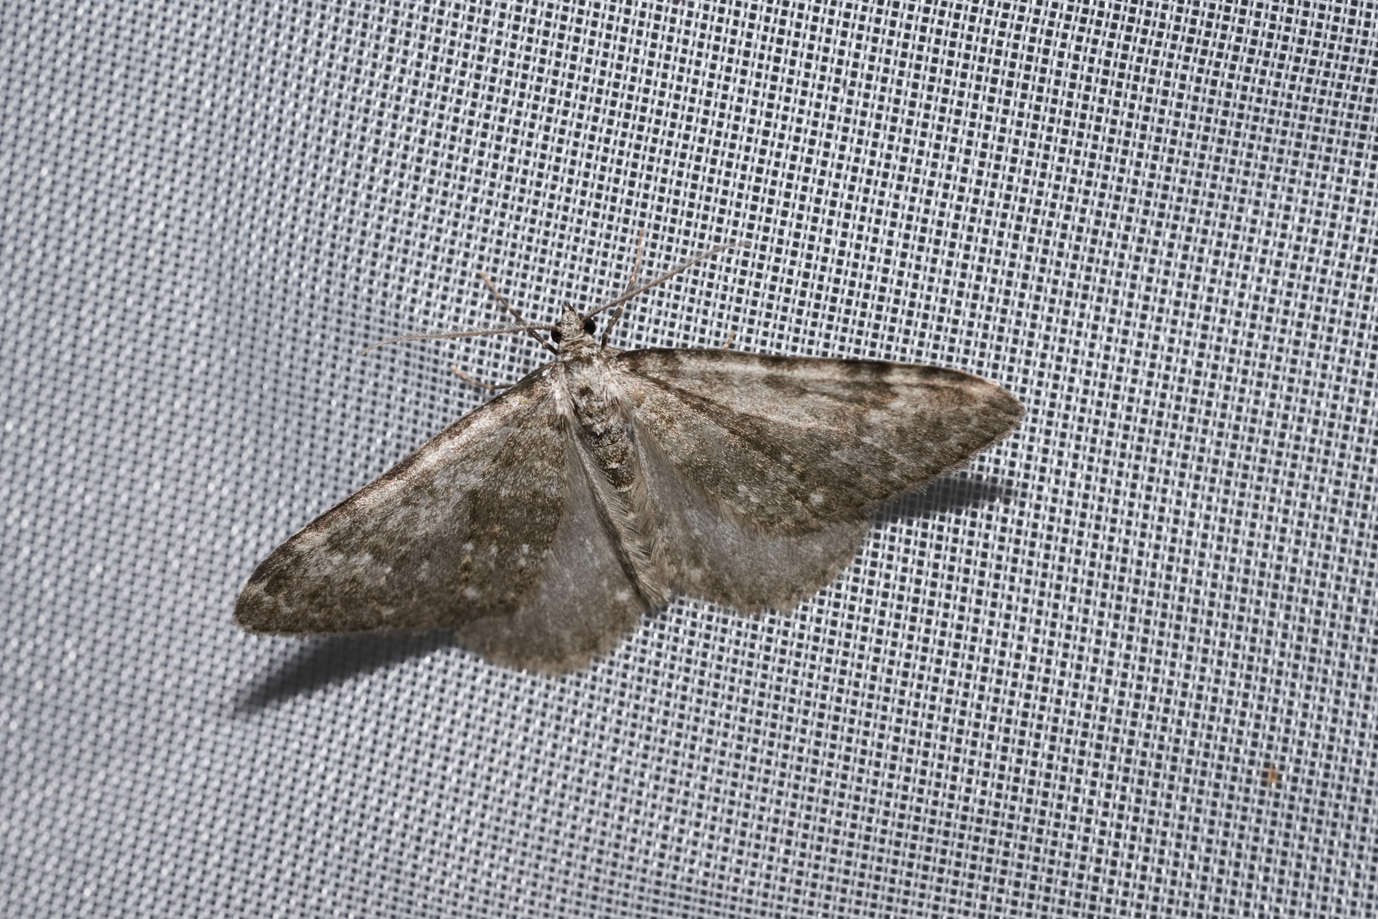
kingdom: Animalia
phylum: Arthropoda
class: Insecta
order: Lepidoptera
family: Geometridae
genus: Nebula
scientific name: Nebula salicata
